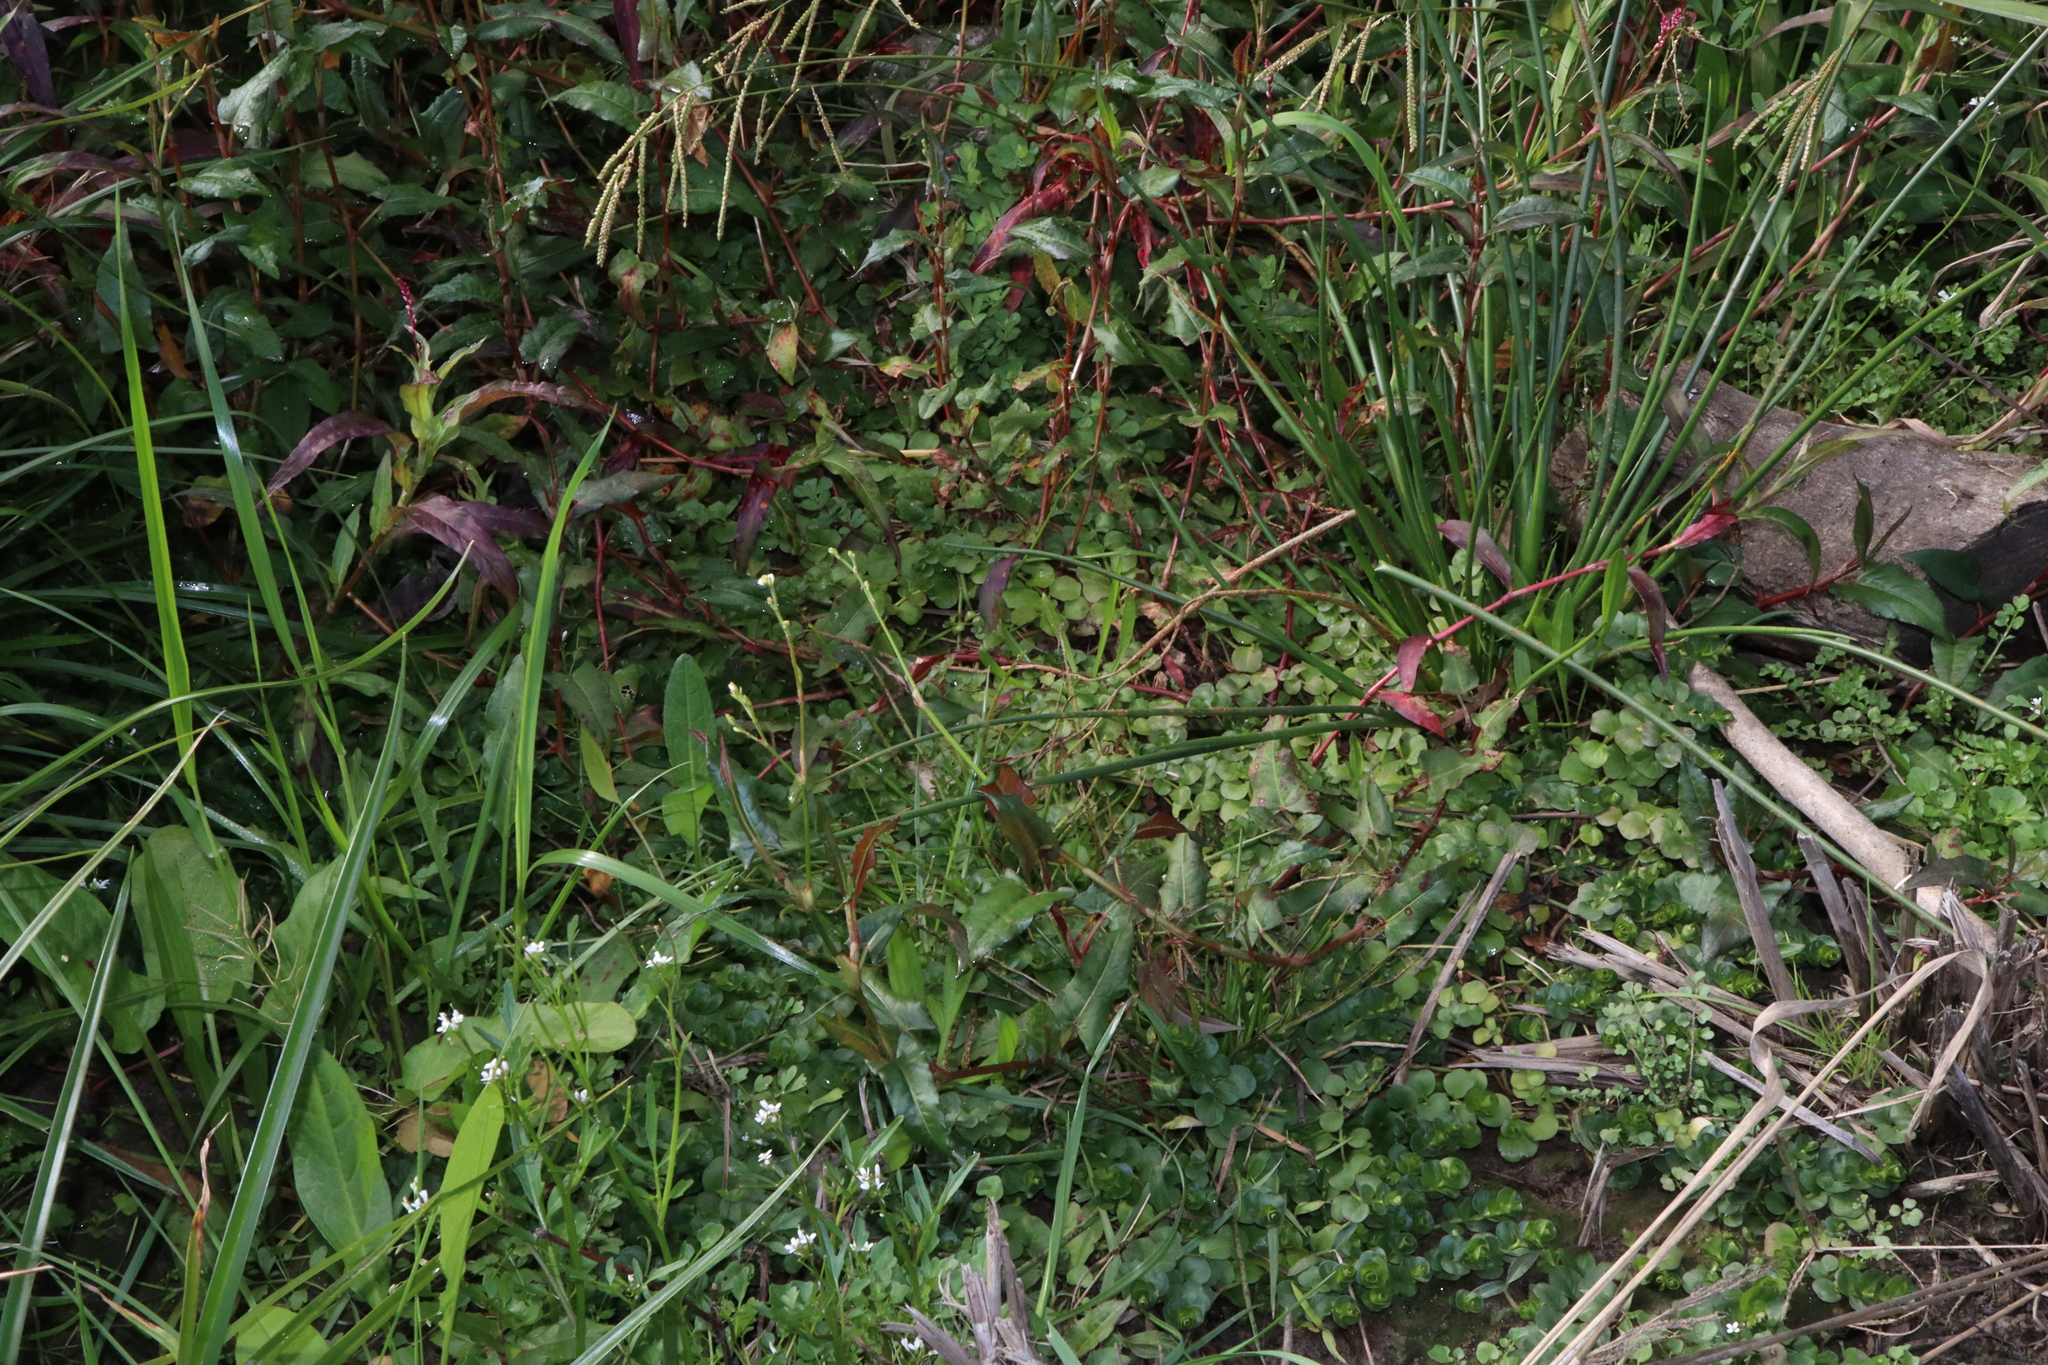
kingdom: Plantae
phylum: Tracheophyta
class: Magnoliopsida
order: Ericales
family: Primulaceae
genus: Lysimachia
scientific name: Lysimachia nummularia
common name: Moneywort
